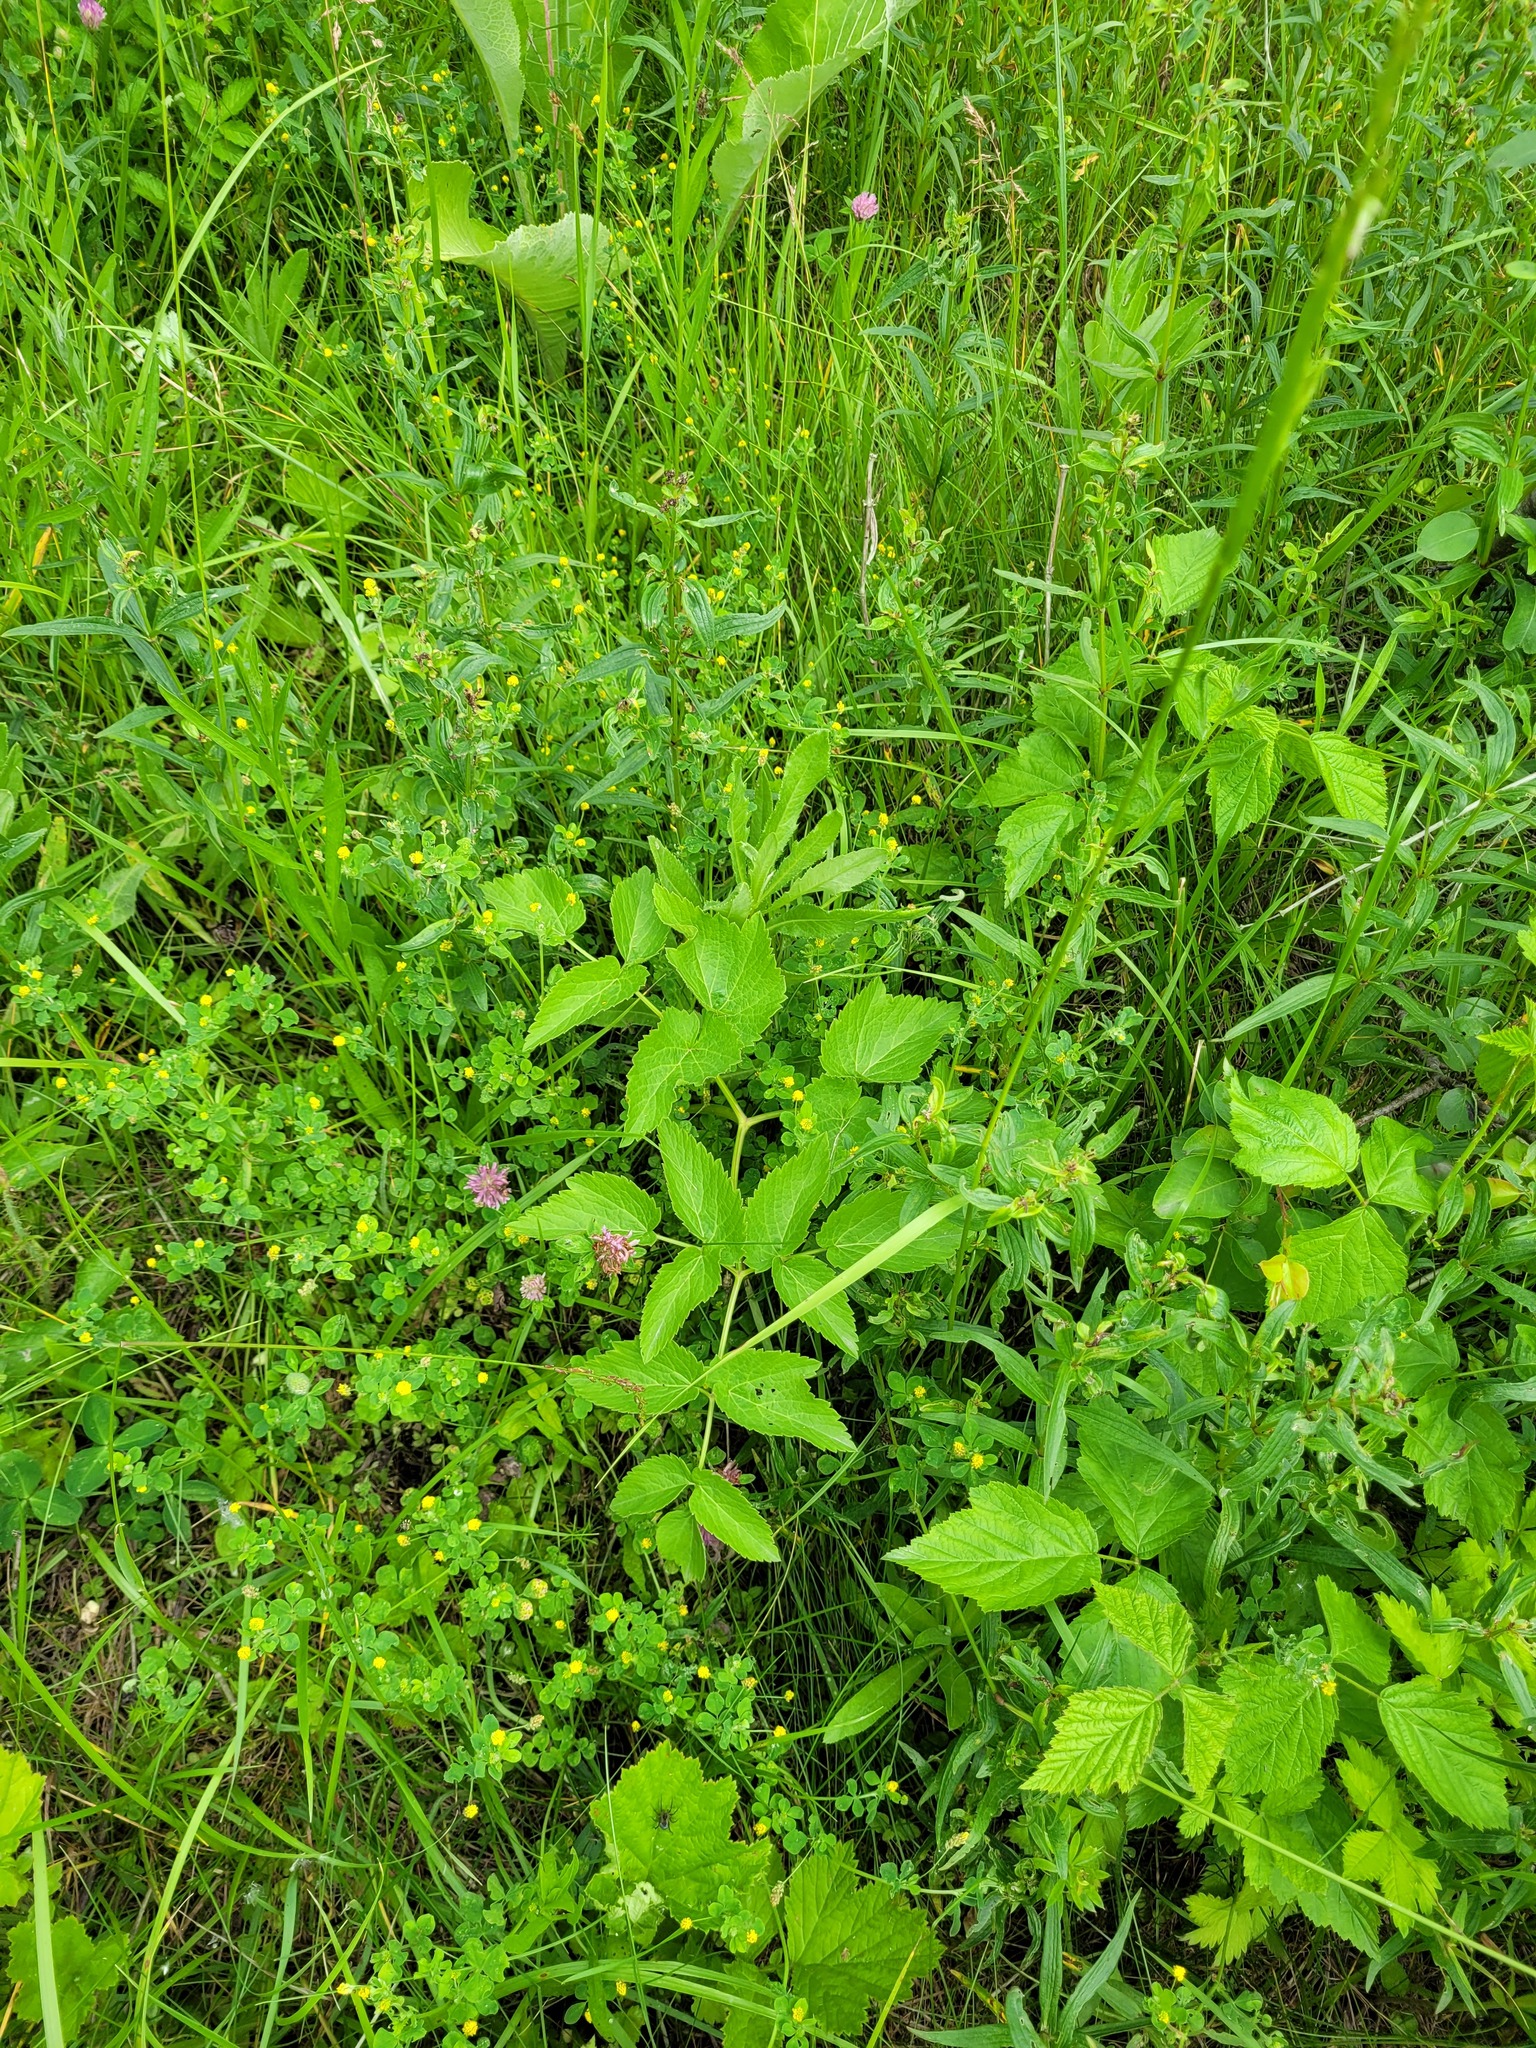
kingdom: Plantae
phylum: Tracheophyta
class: Magnoliopsida
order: Apiales
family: Apiaceae
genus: Ostericum
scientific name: Ostericum palustre
